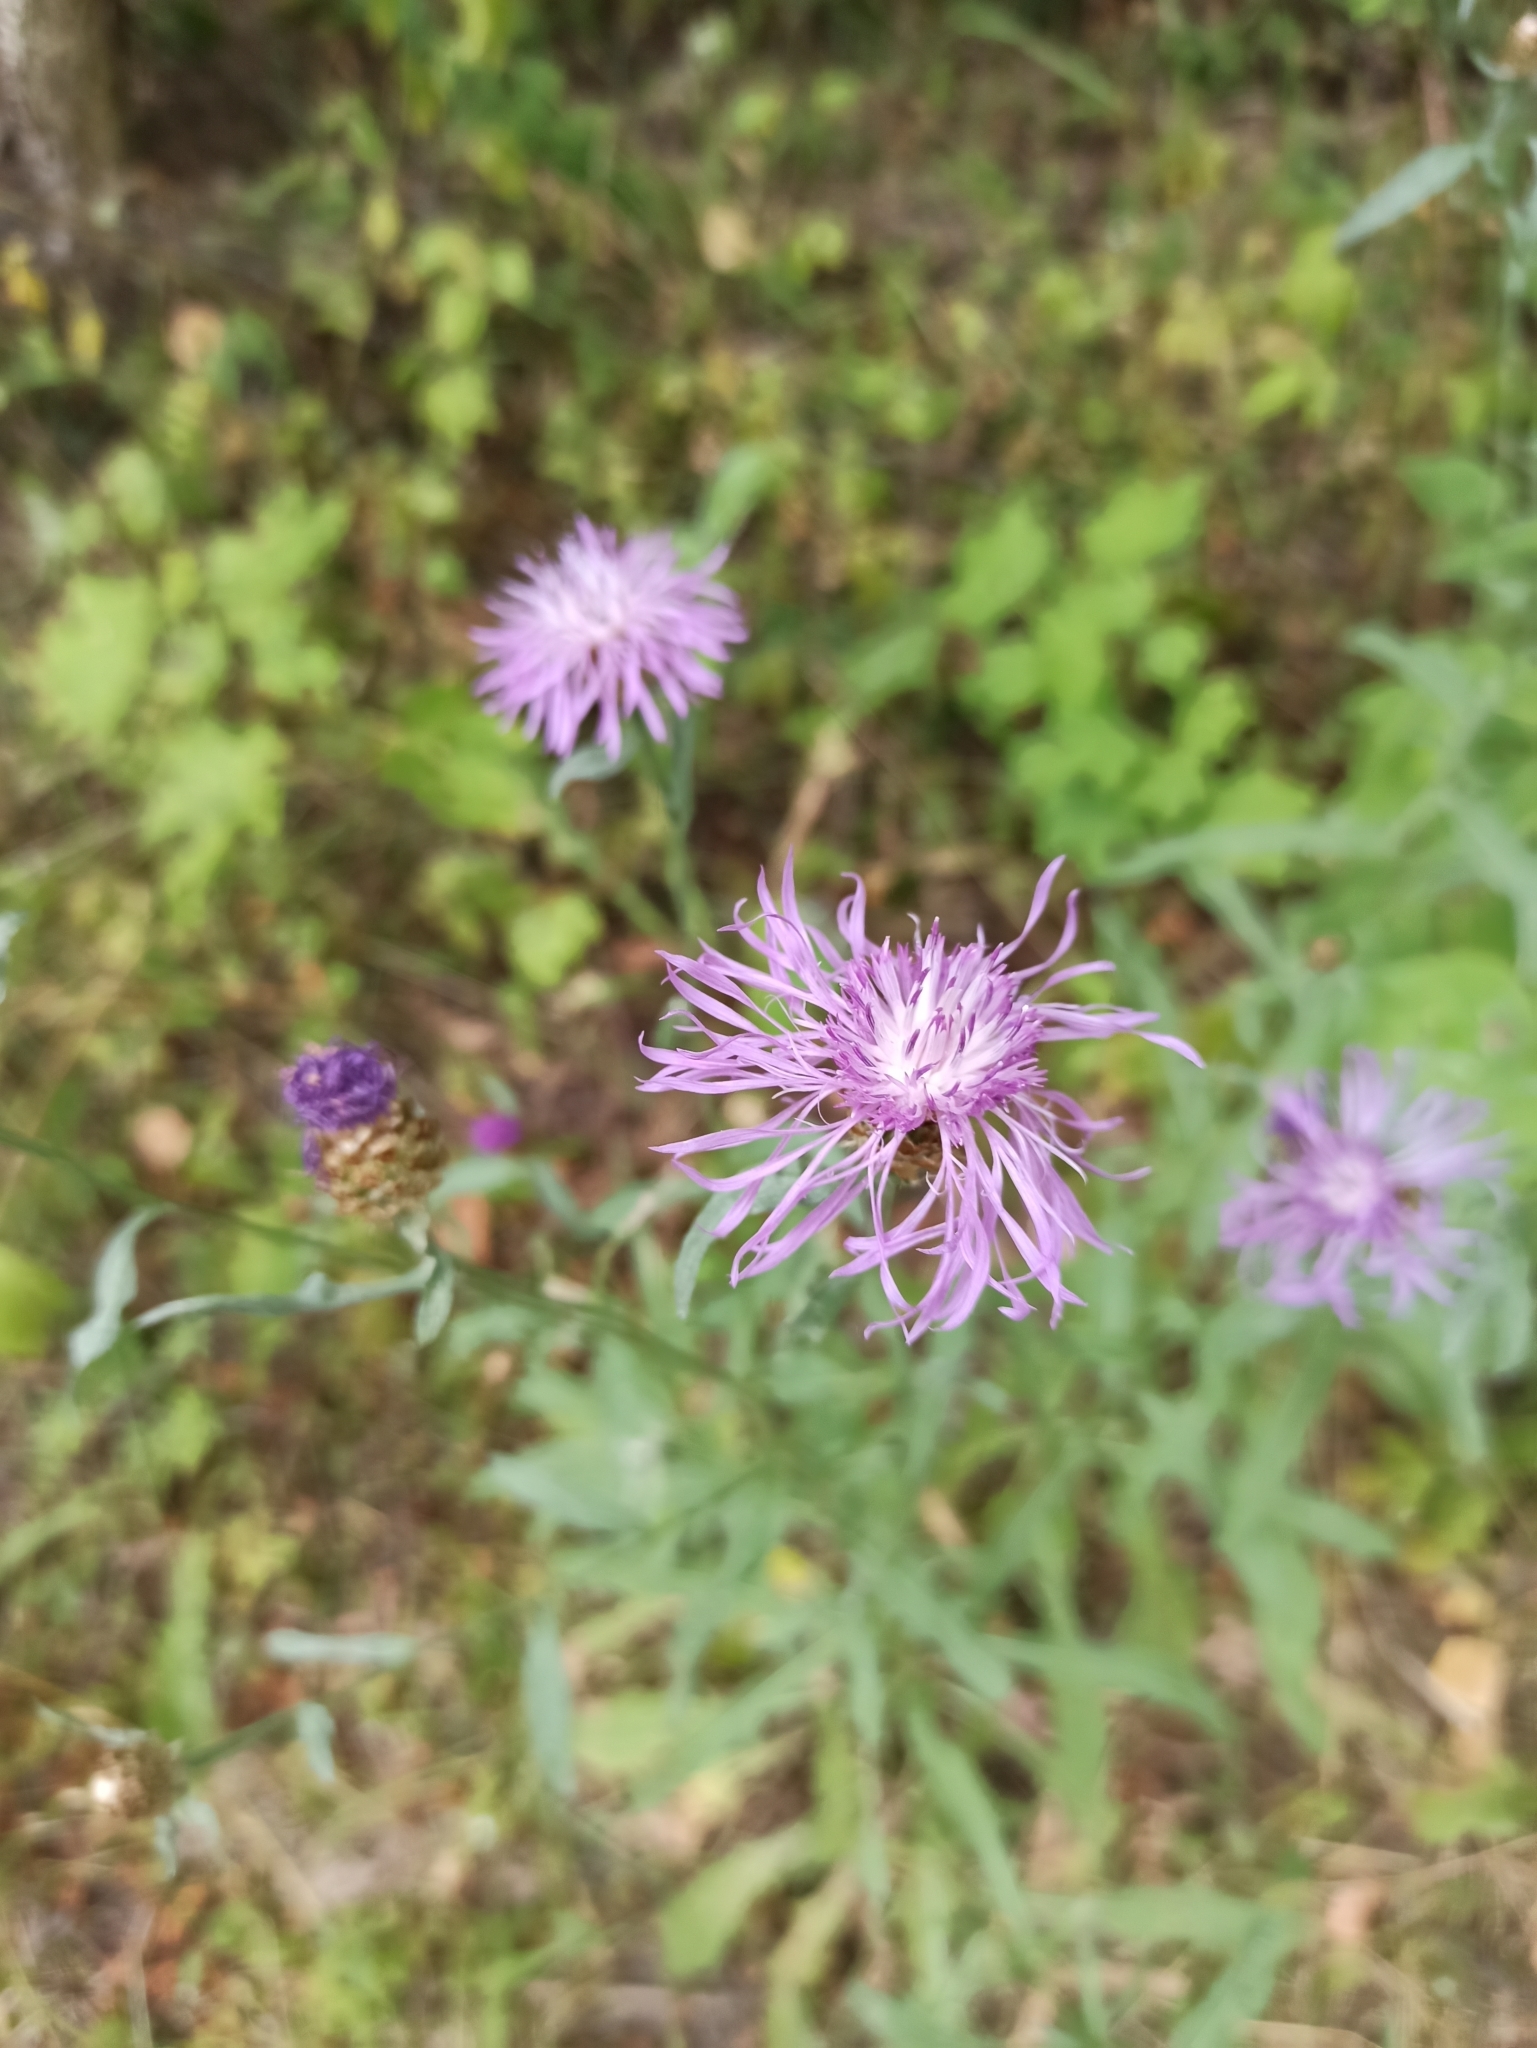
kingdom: Plantae
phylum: Tracheophyta
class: Magnoliopsida
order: Asterales
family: Asteraceae
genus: Centaurea
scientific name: Centaurea jacea
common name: Brown knapweed
